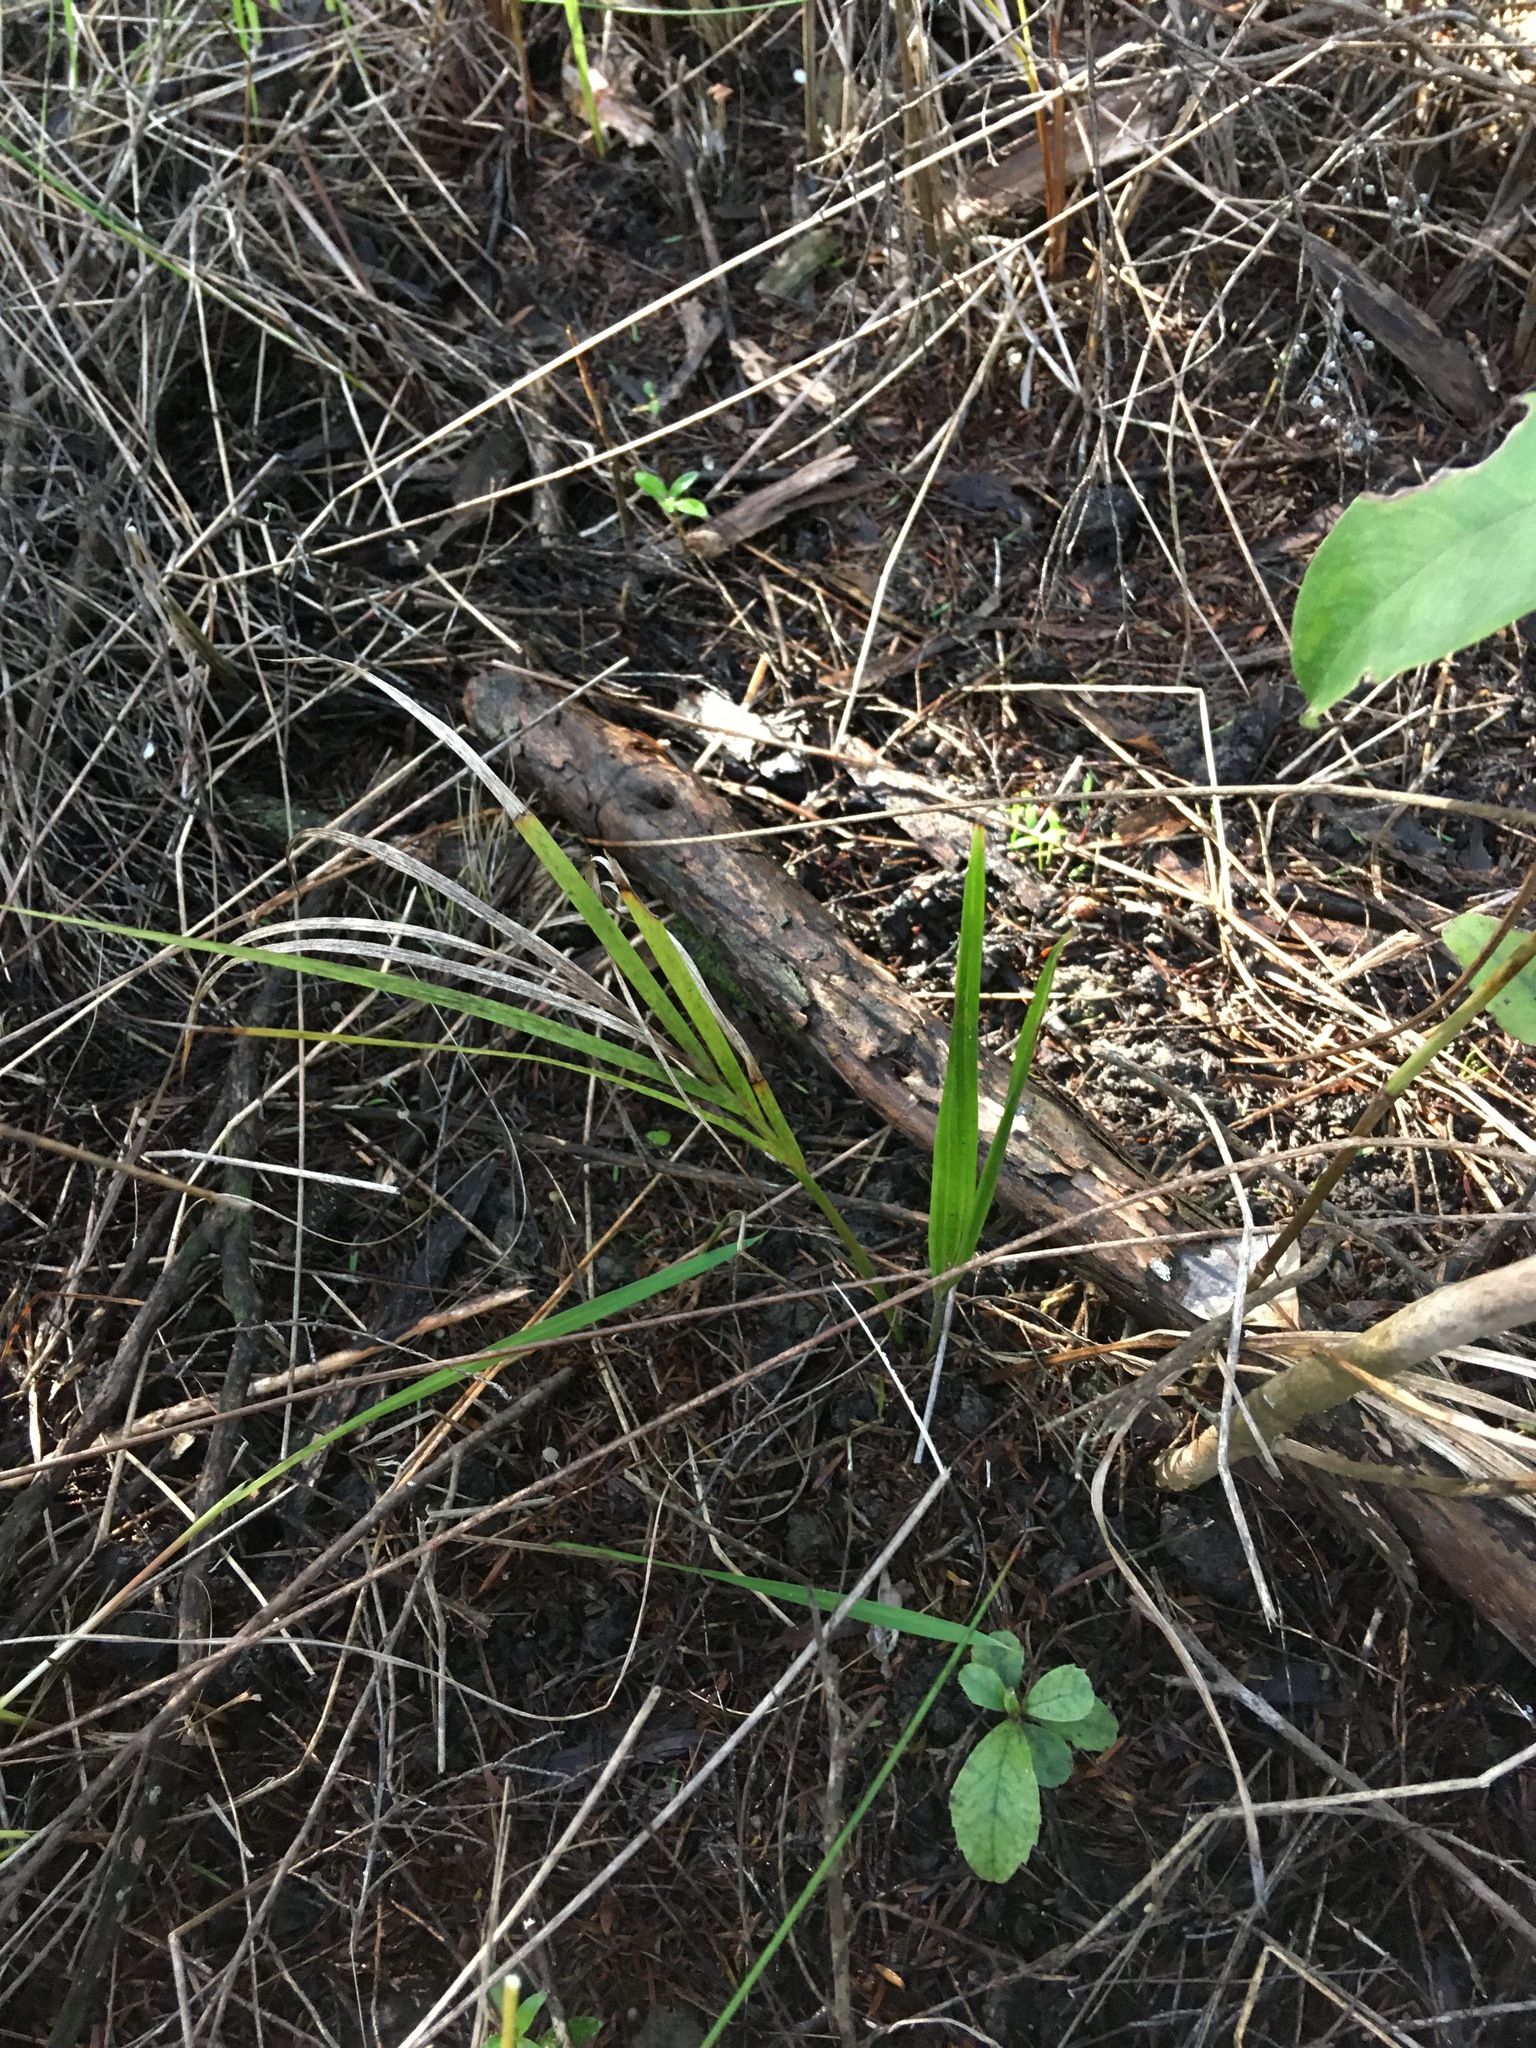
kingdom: Plantae
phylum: Tracheophyta
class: Liliopsida
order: Arecales
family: Arecaceae
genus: Rhopalostylis
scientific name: Rhopalostylis sapida
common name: Feather-duster palm
